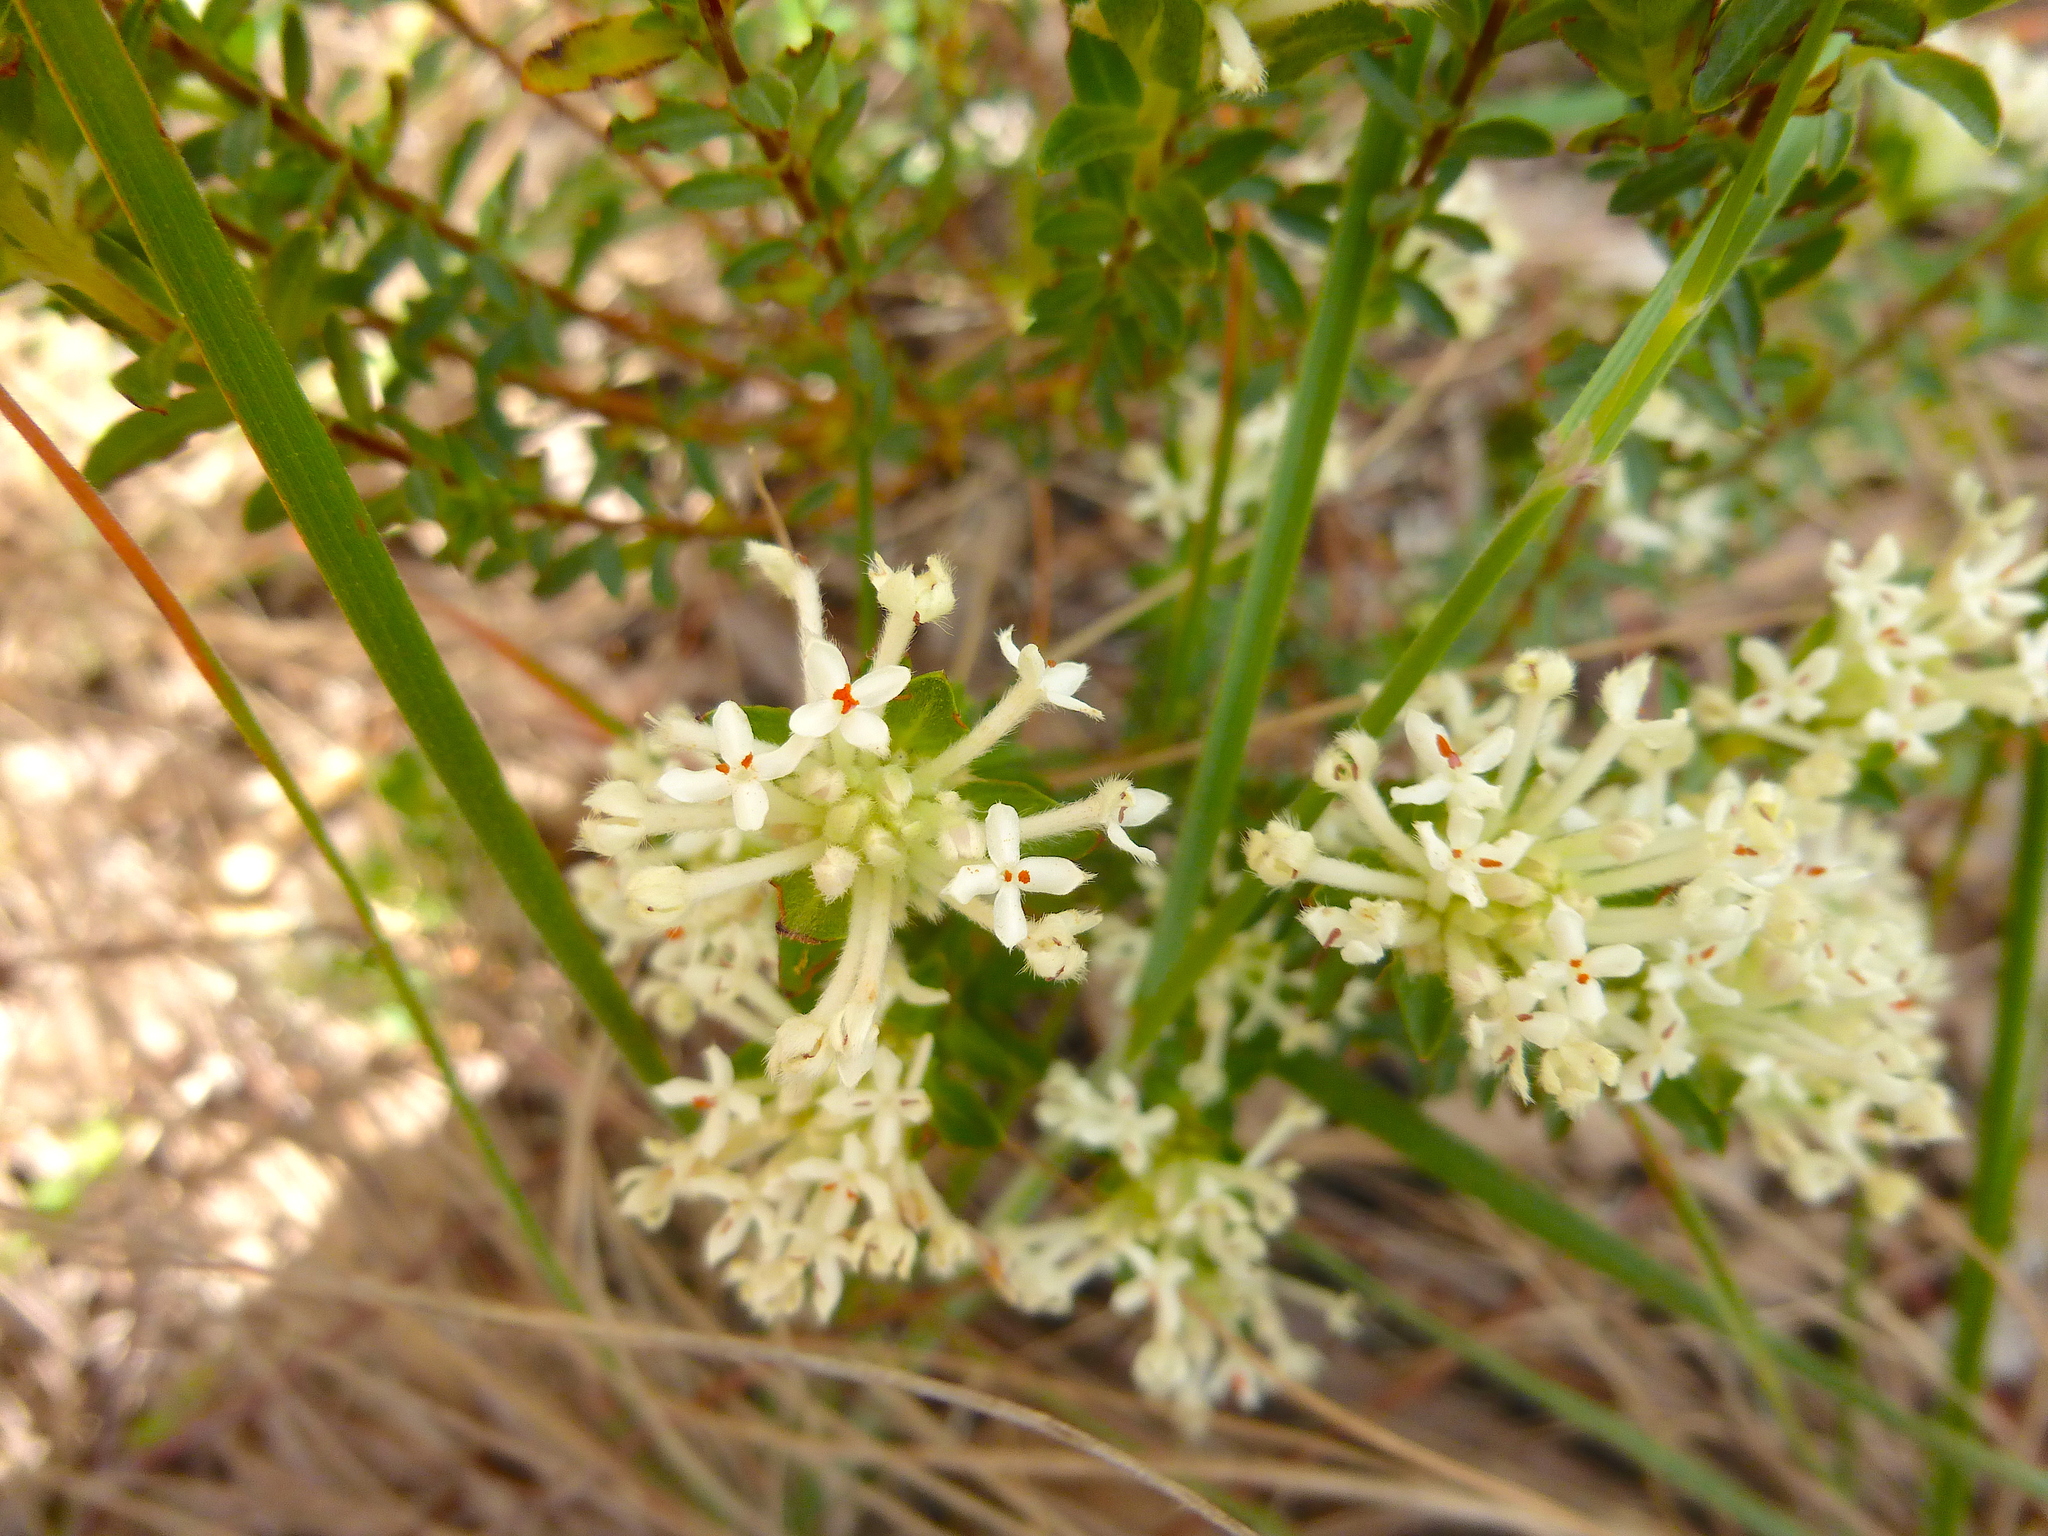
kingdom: Plantae
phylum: Tracheophyta
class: Magnoliopsida
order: Malvales
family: Thymelaeaceae
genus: Pimelea
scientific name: Pimelea humilis
